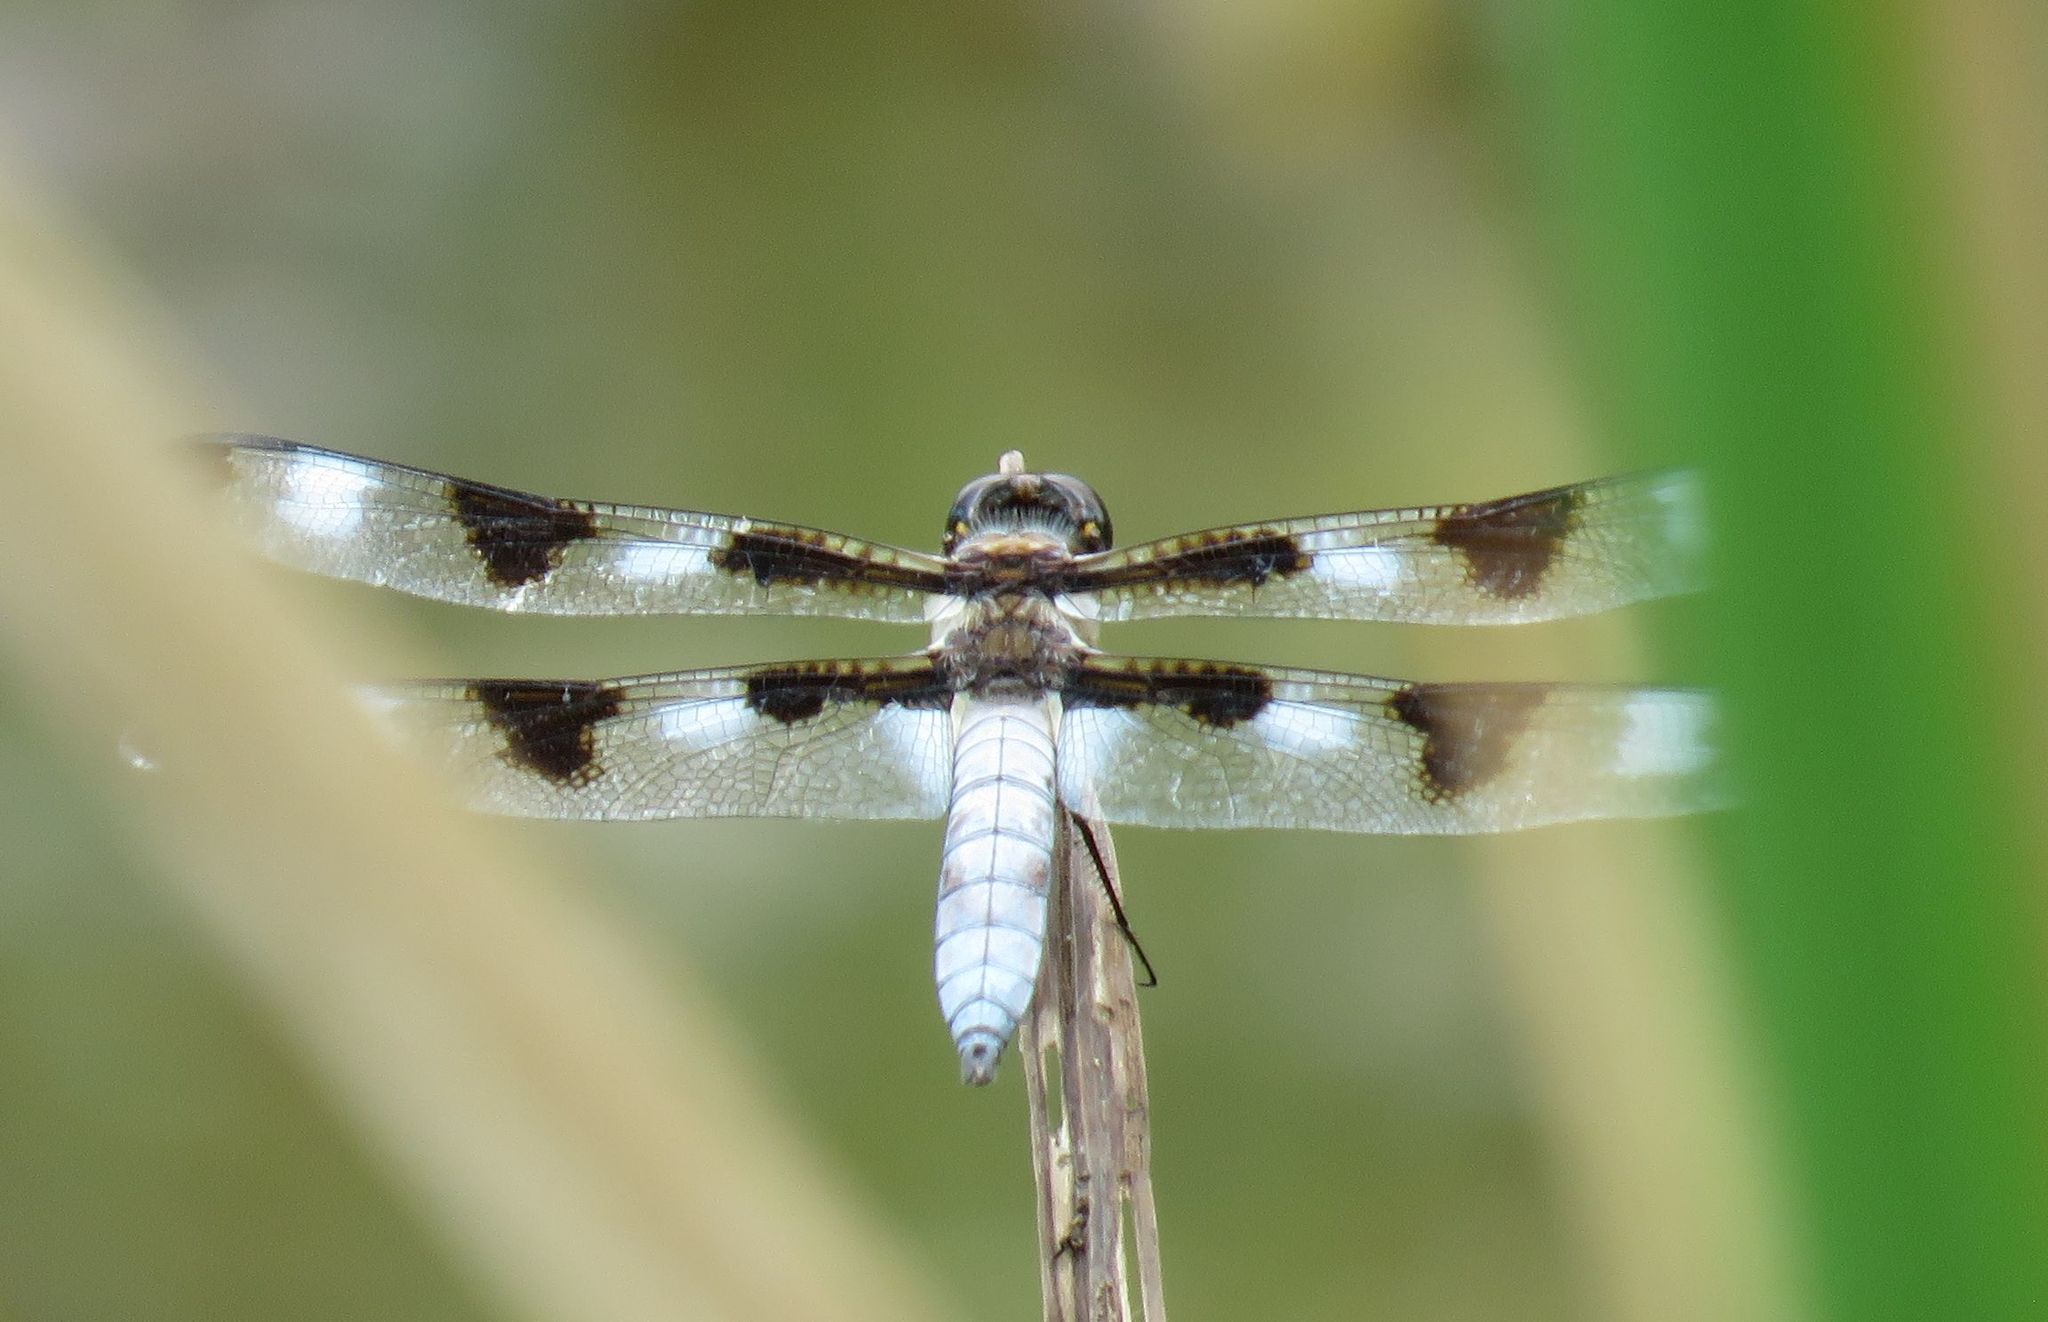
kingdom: Animalia
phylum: Arthropoda
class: Insecta
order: Odonata
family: Libellulidae
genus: Libellula
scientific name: Libellula pulchella
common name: Twelve-spotted skimmer
